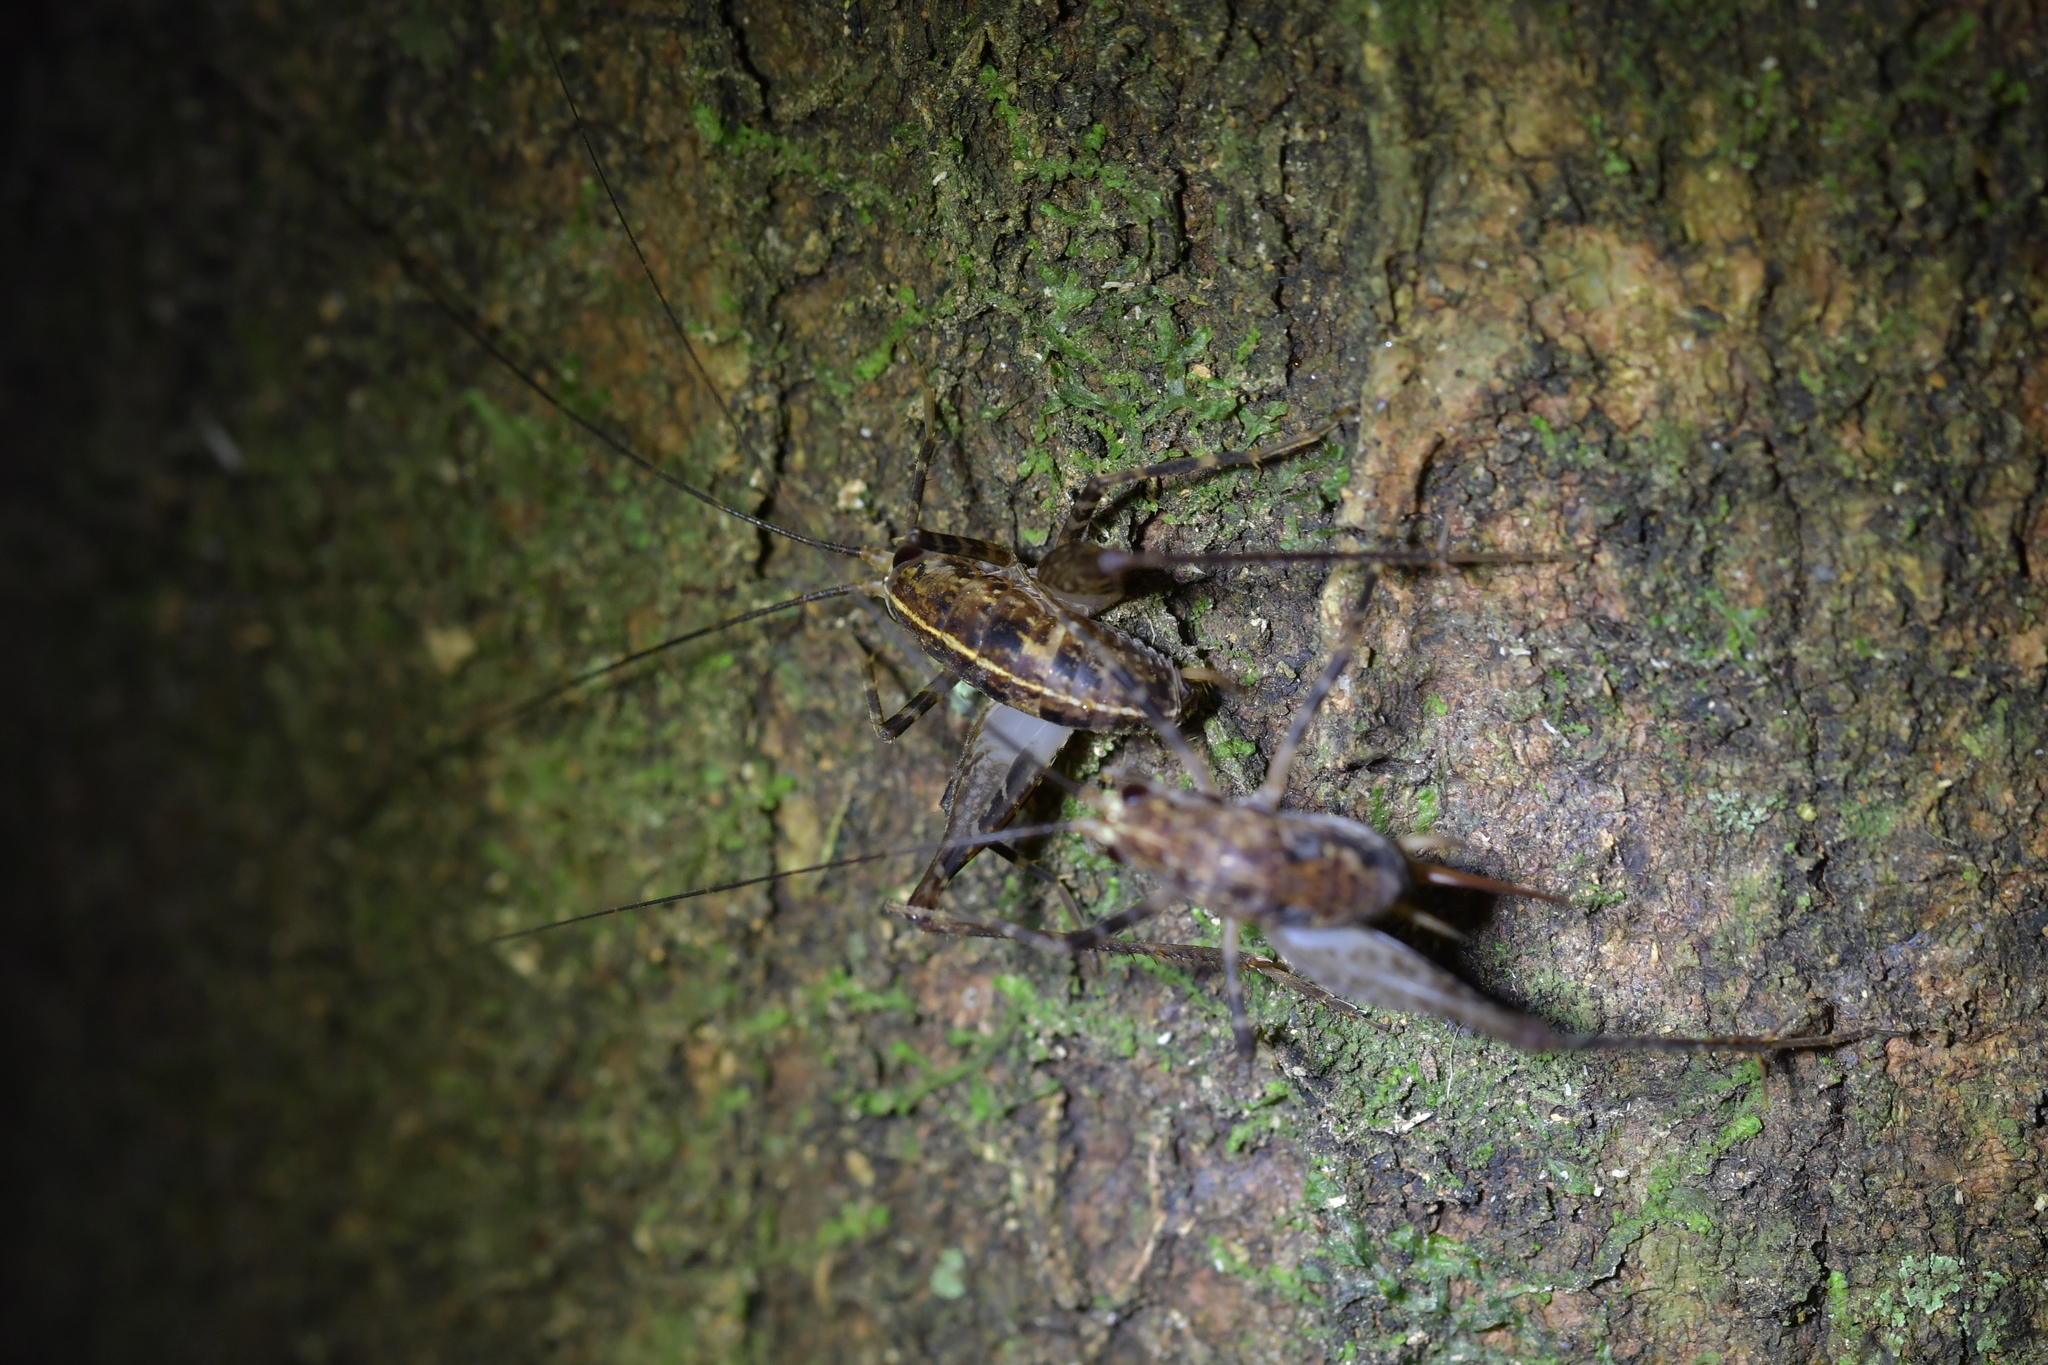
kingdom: Animalia
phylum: Arthropoda
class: Insecta
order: Orthoptera
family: Rhaphidophoridae
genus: Pleioplectron
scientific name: Pleioplectron hudsoni
